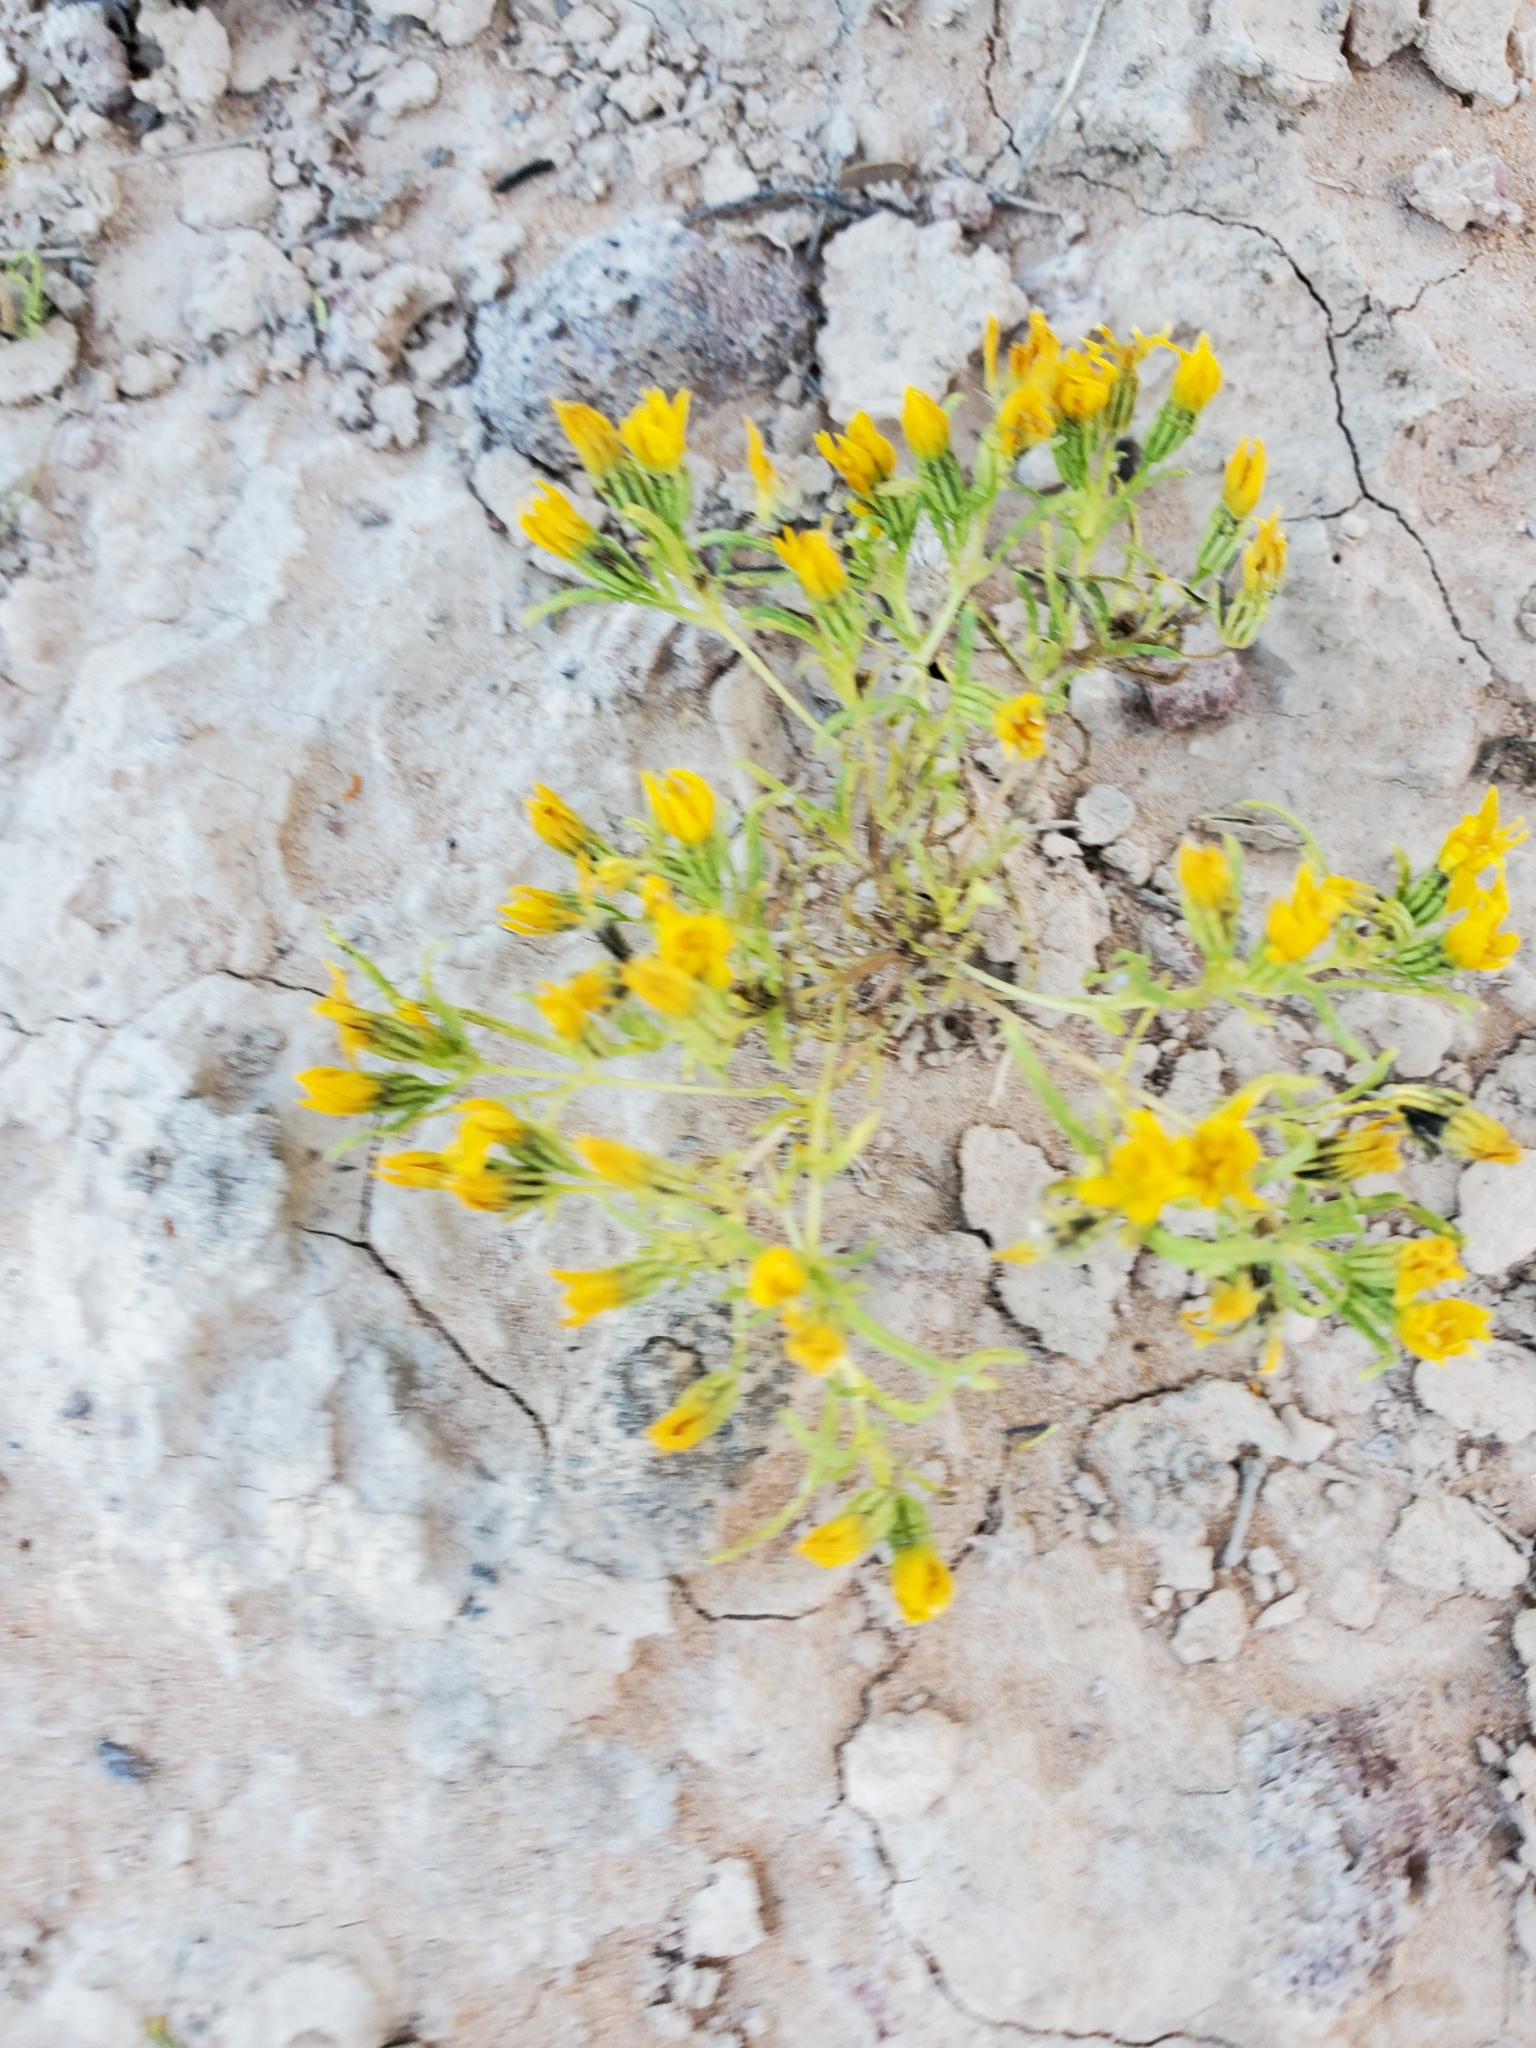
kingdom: Plantae
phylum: Tracheophyta
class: Magnoliopsida
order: Asterales
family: Asteraceae
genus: Pectis
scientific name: Pectis papposa
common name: Many-bristle chinchweed
